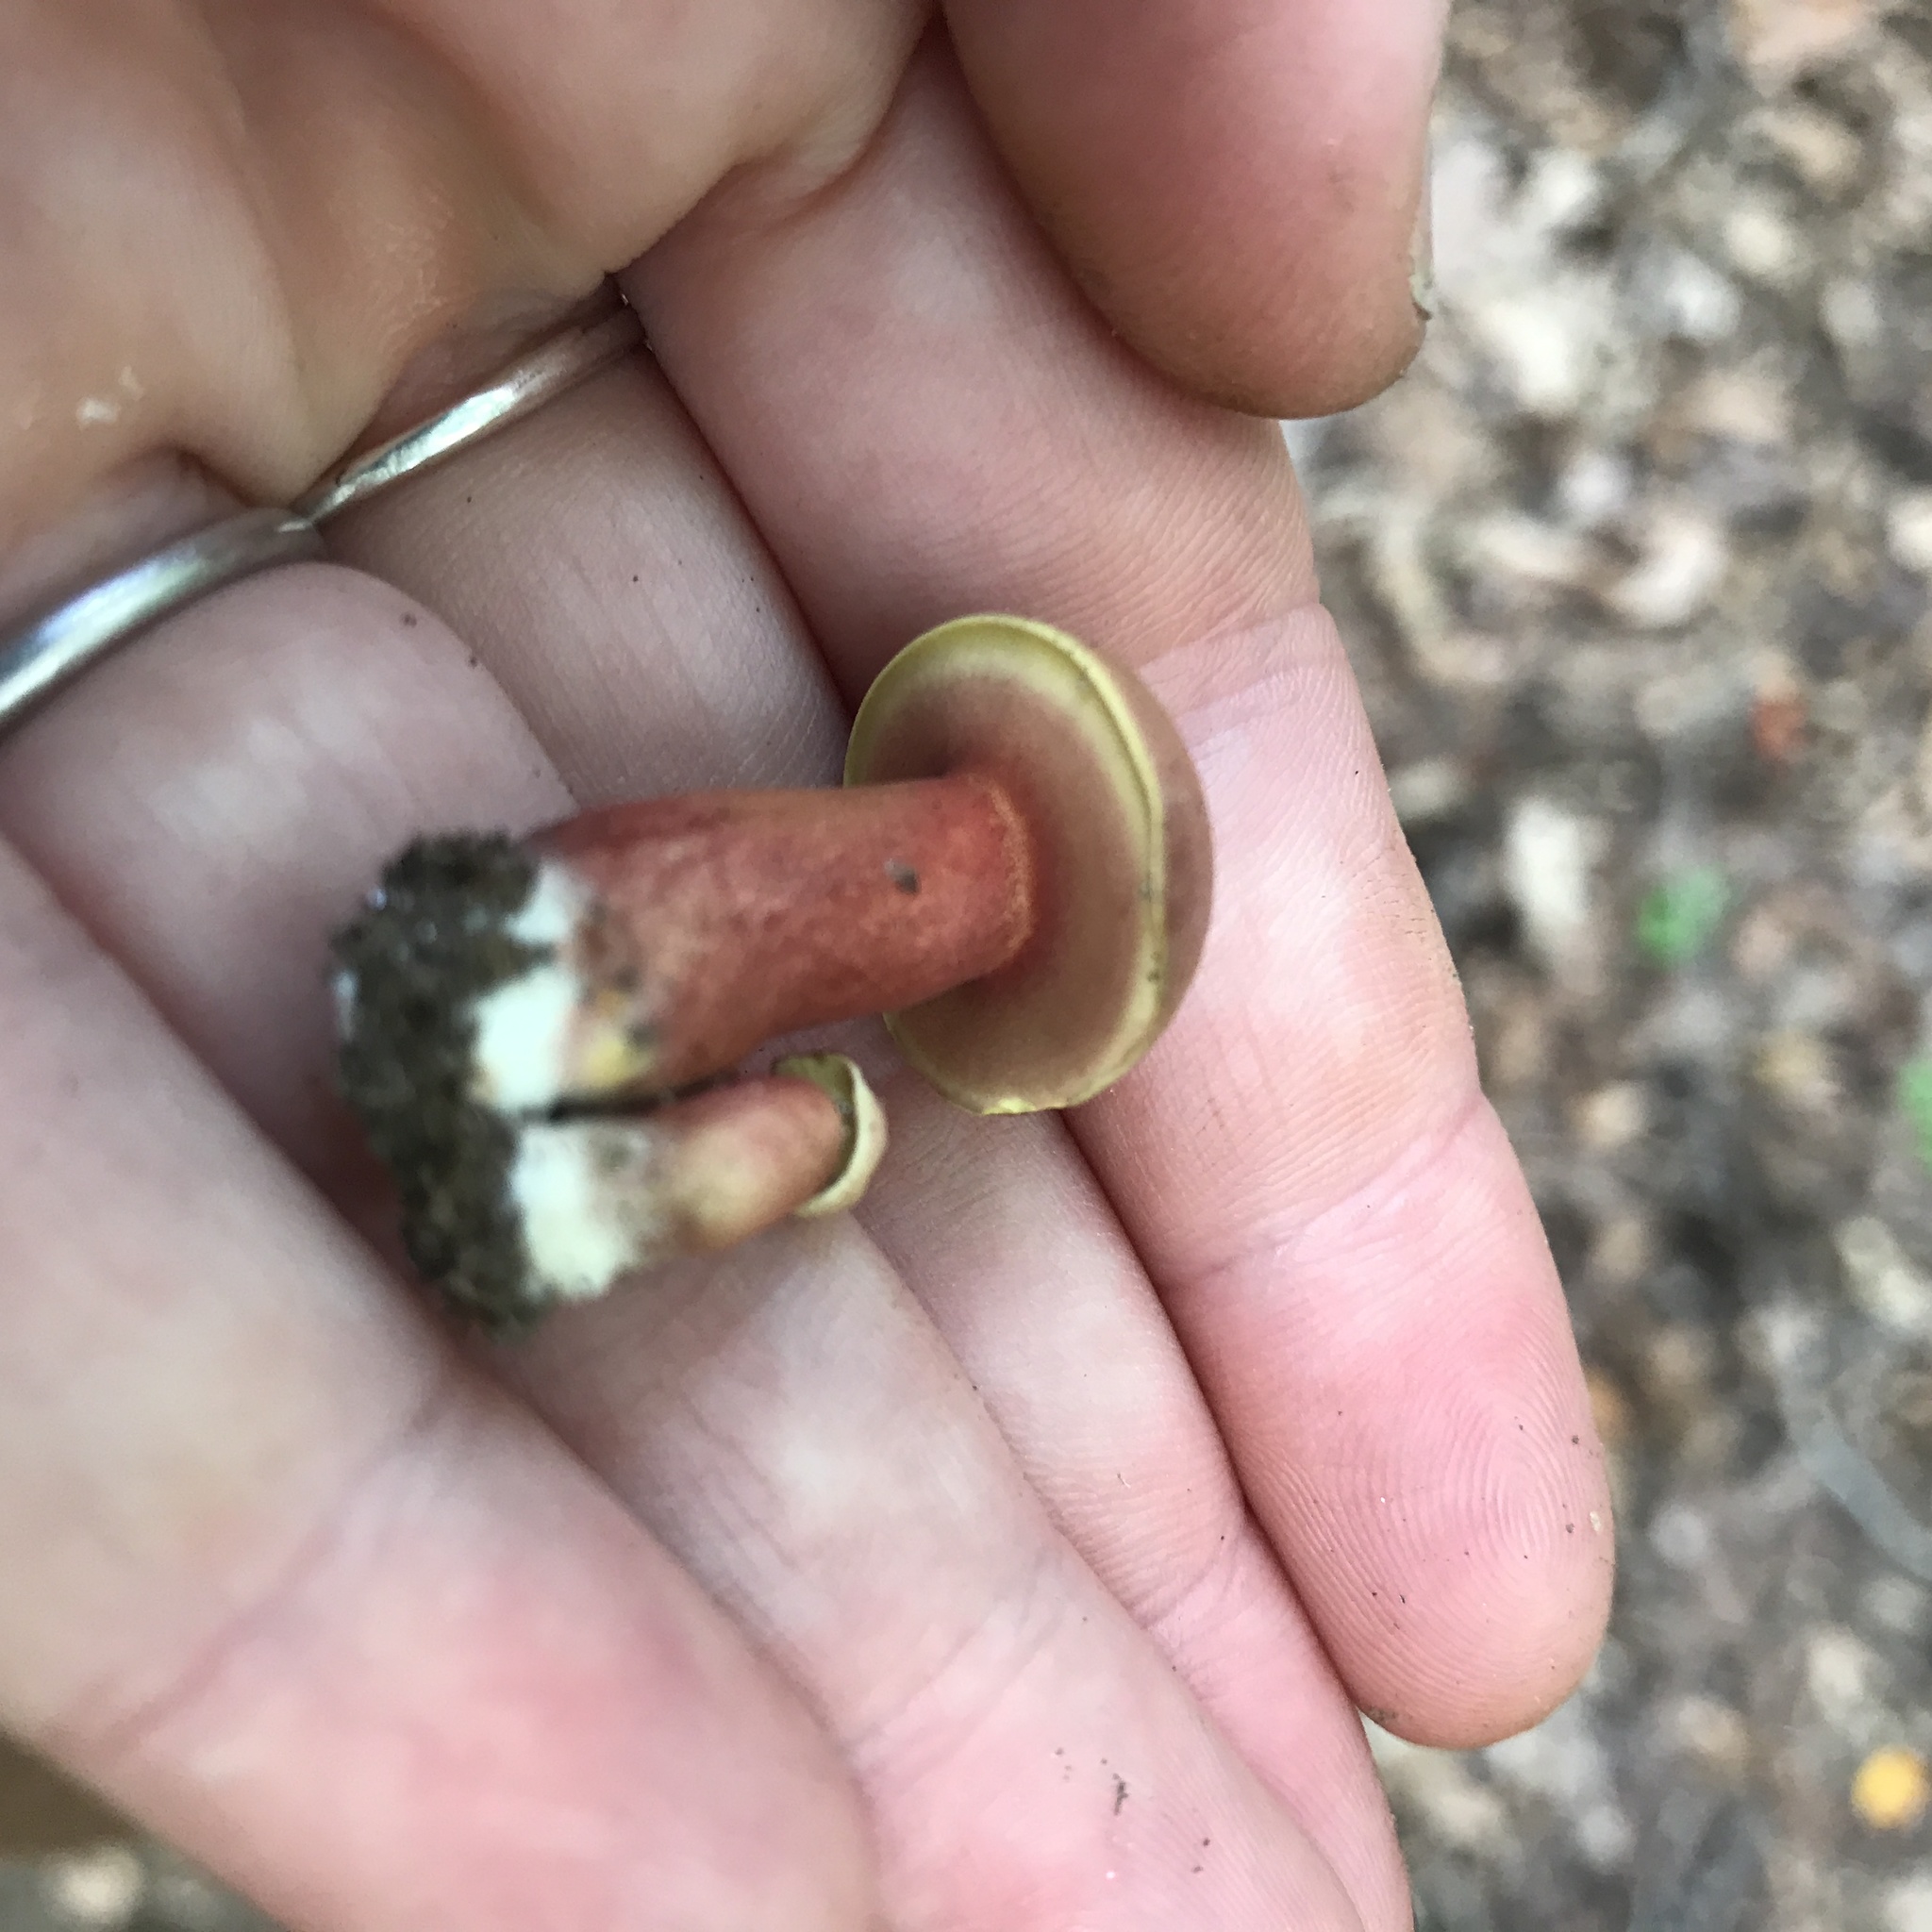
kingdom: Fungi
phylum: Basidiomycota
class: Agaricomycetes
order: Boletales
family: Boletaceae
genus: Boletus
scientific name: Boletus carminiporus
